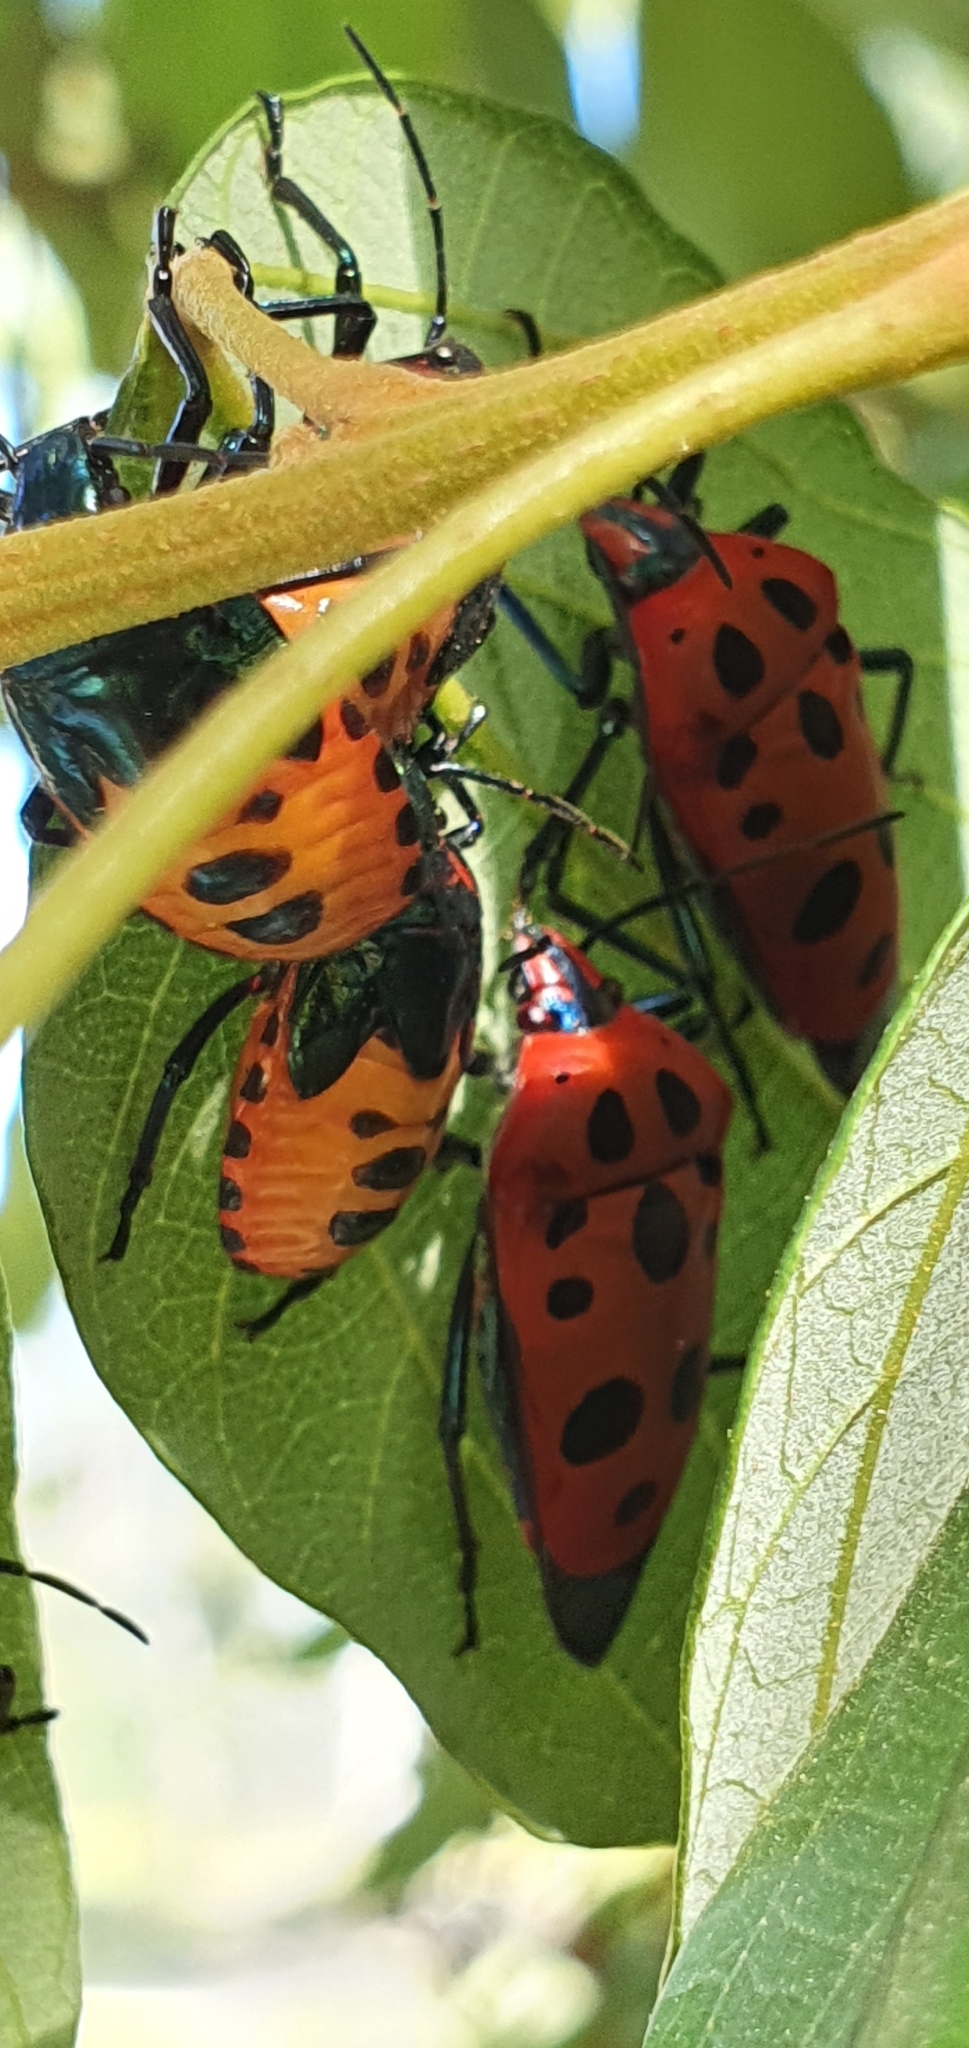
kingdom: Animalia
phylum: Arthropoda
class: Insecta
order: Hemiptera
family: Scutelleridae
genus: Cantao
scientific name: Cantao
